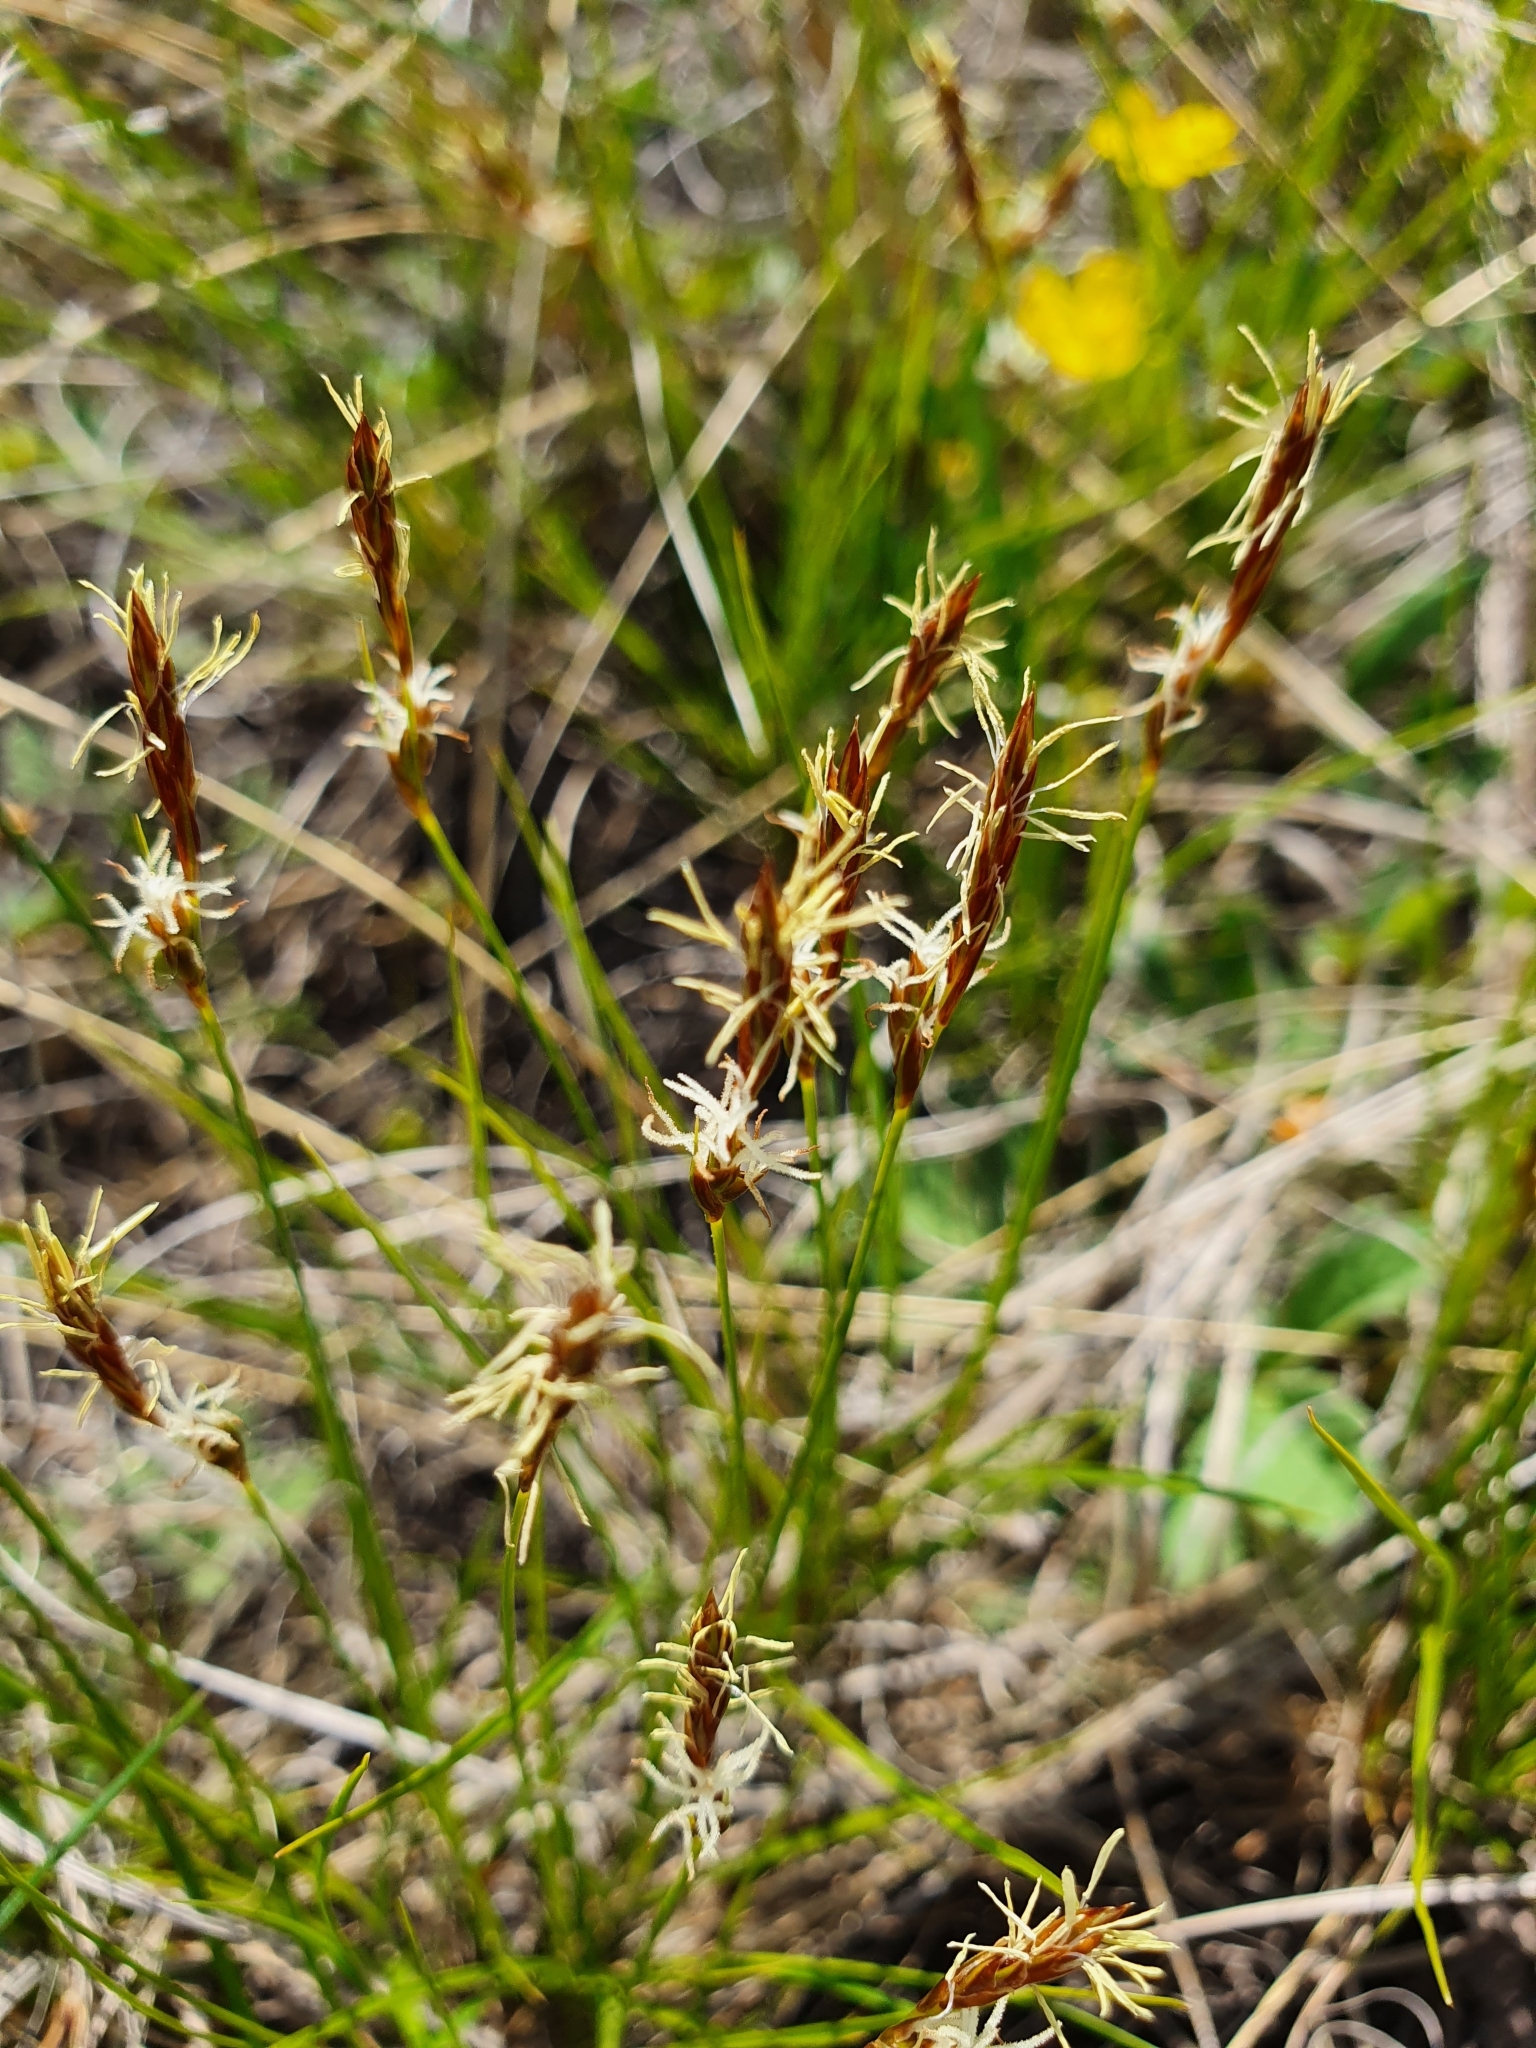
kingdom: Plantae
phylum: Tracheophyta
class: Liliopsida
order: Poales
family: Cyperaceae
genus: Carex
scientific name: Carex praecox
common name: Early sedge
